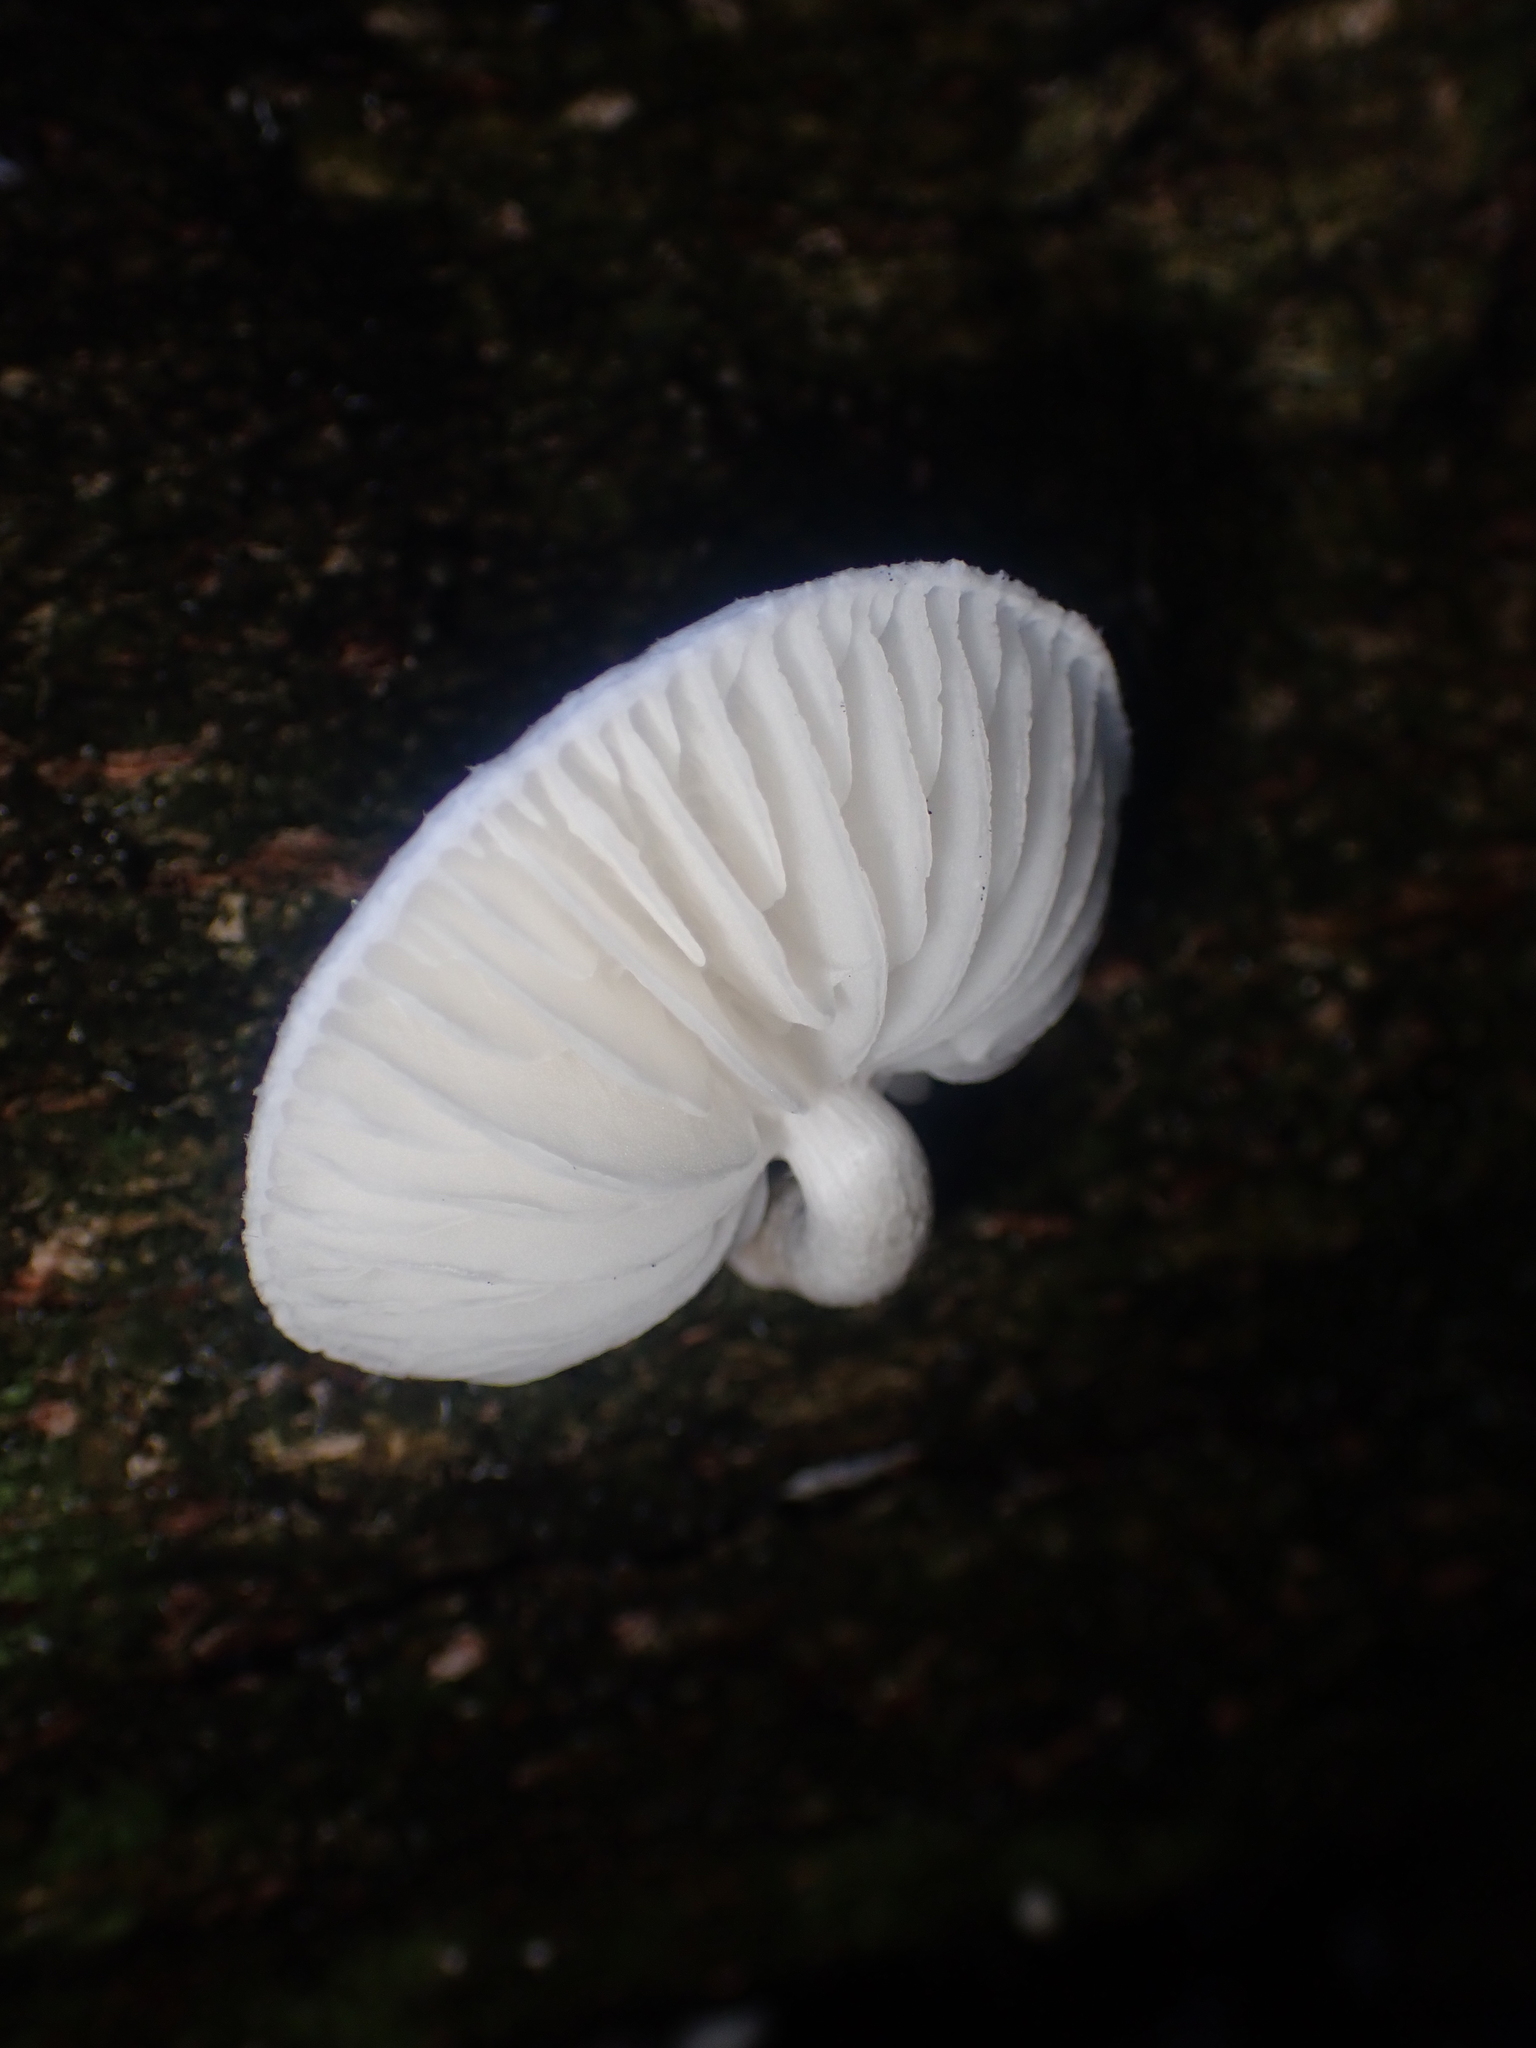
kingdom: Fungi
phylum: Basidiomycota
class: Agaricomycetes
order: Agaricales
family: Physalacriaceae
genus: Oudemansiella
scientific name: Oudemansiella australis
